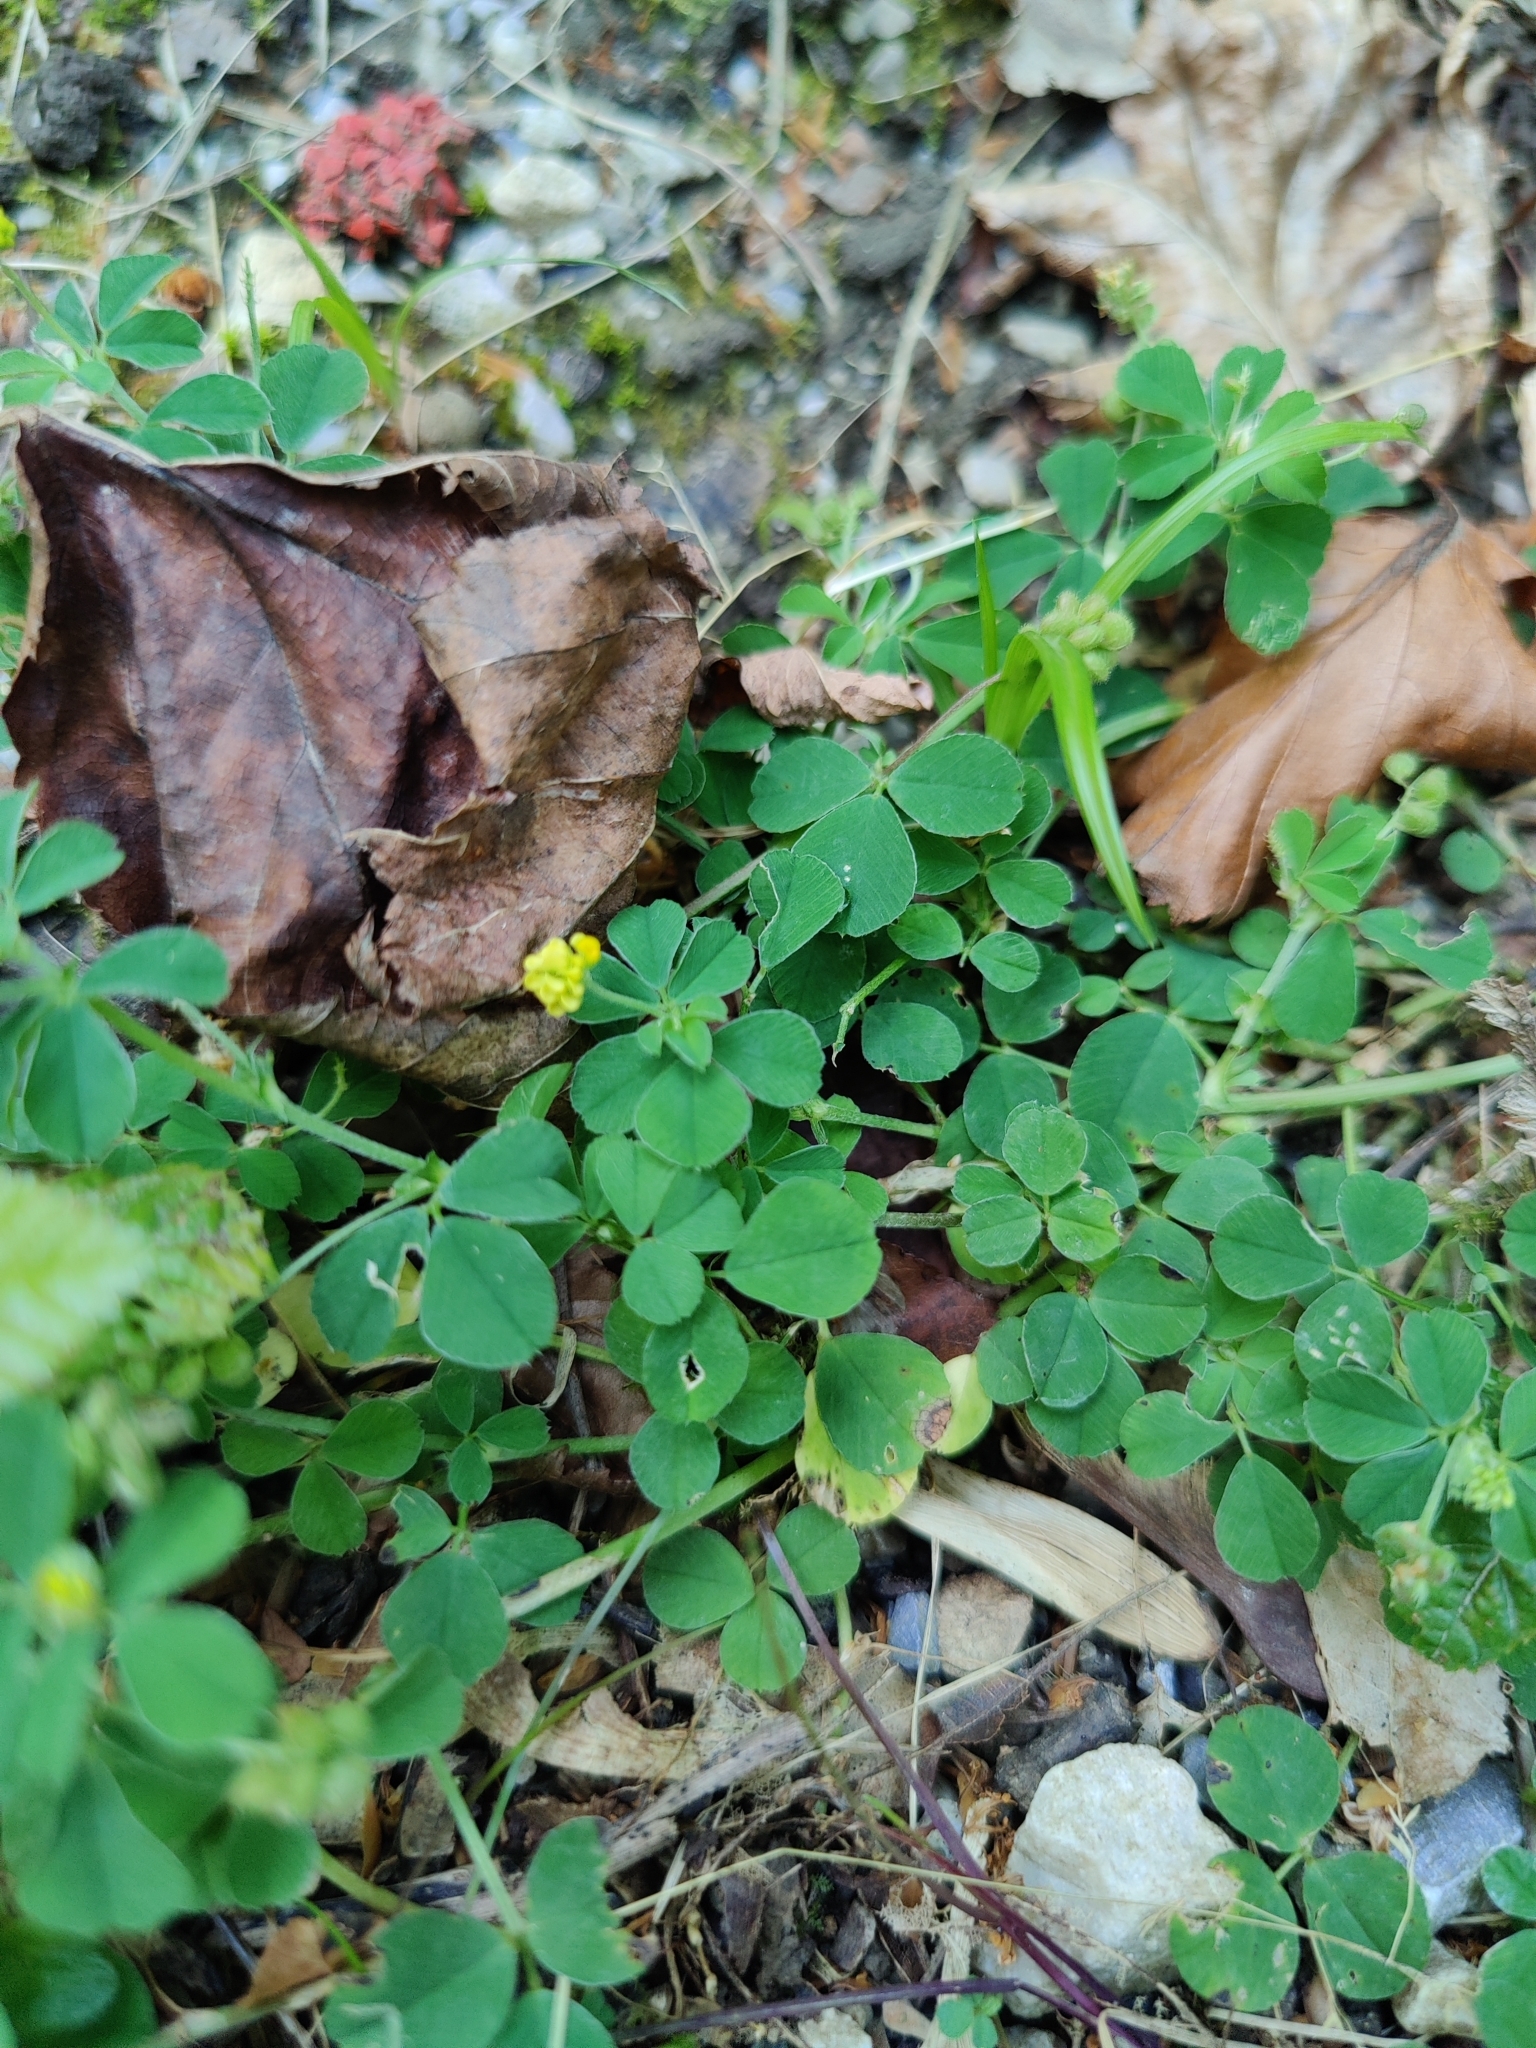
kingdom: Plantae
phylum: Tracheophyta
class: Magnoliopsida
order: Fabales
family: Fabaceae
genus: Medicago
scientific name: Medicago lupulina
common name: Black medick
